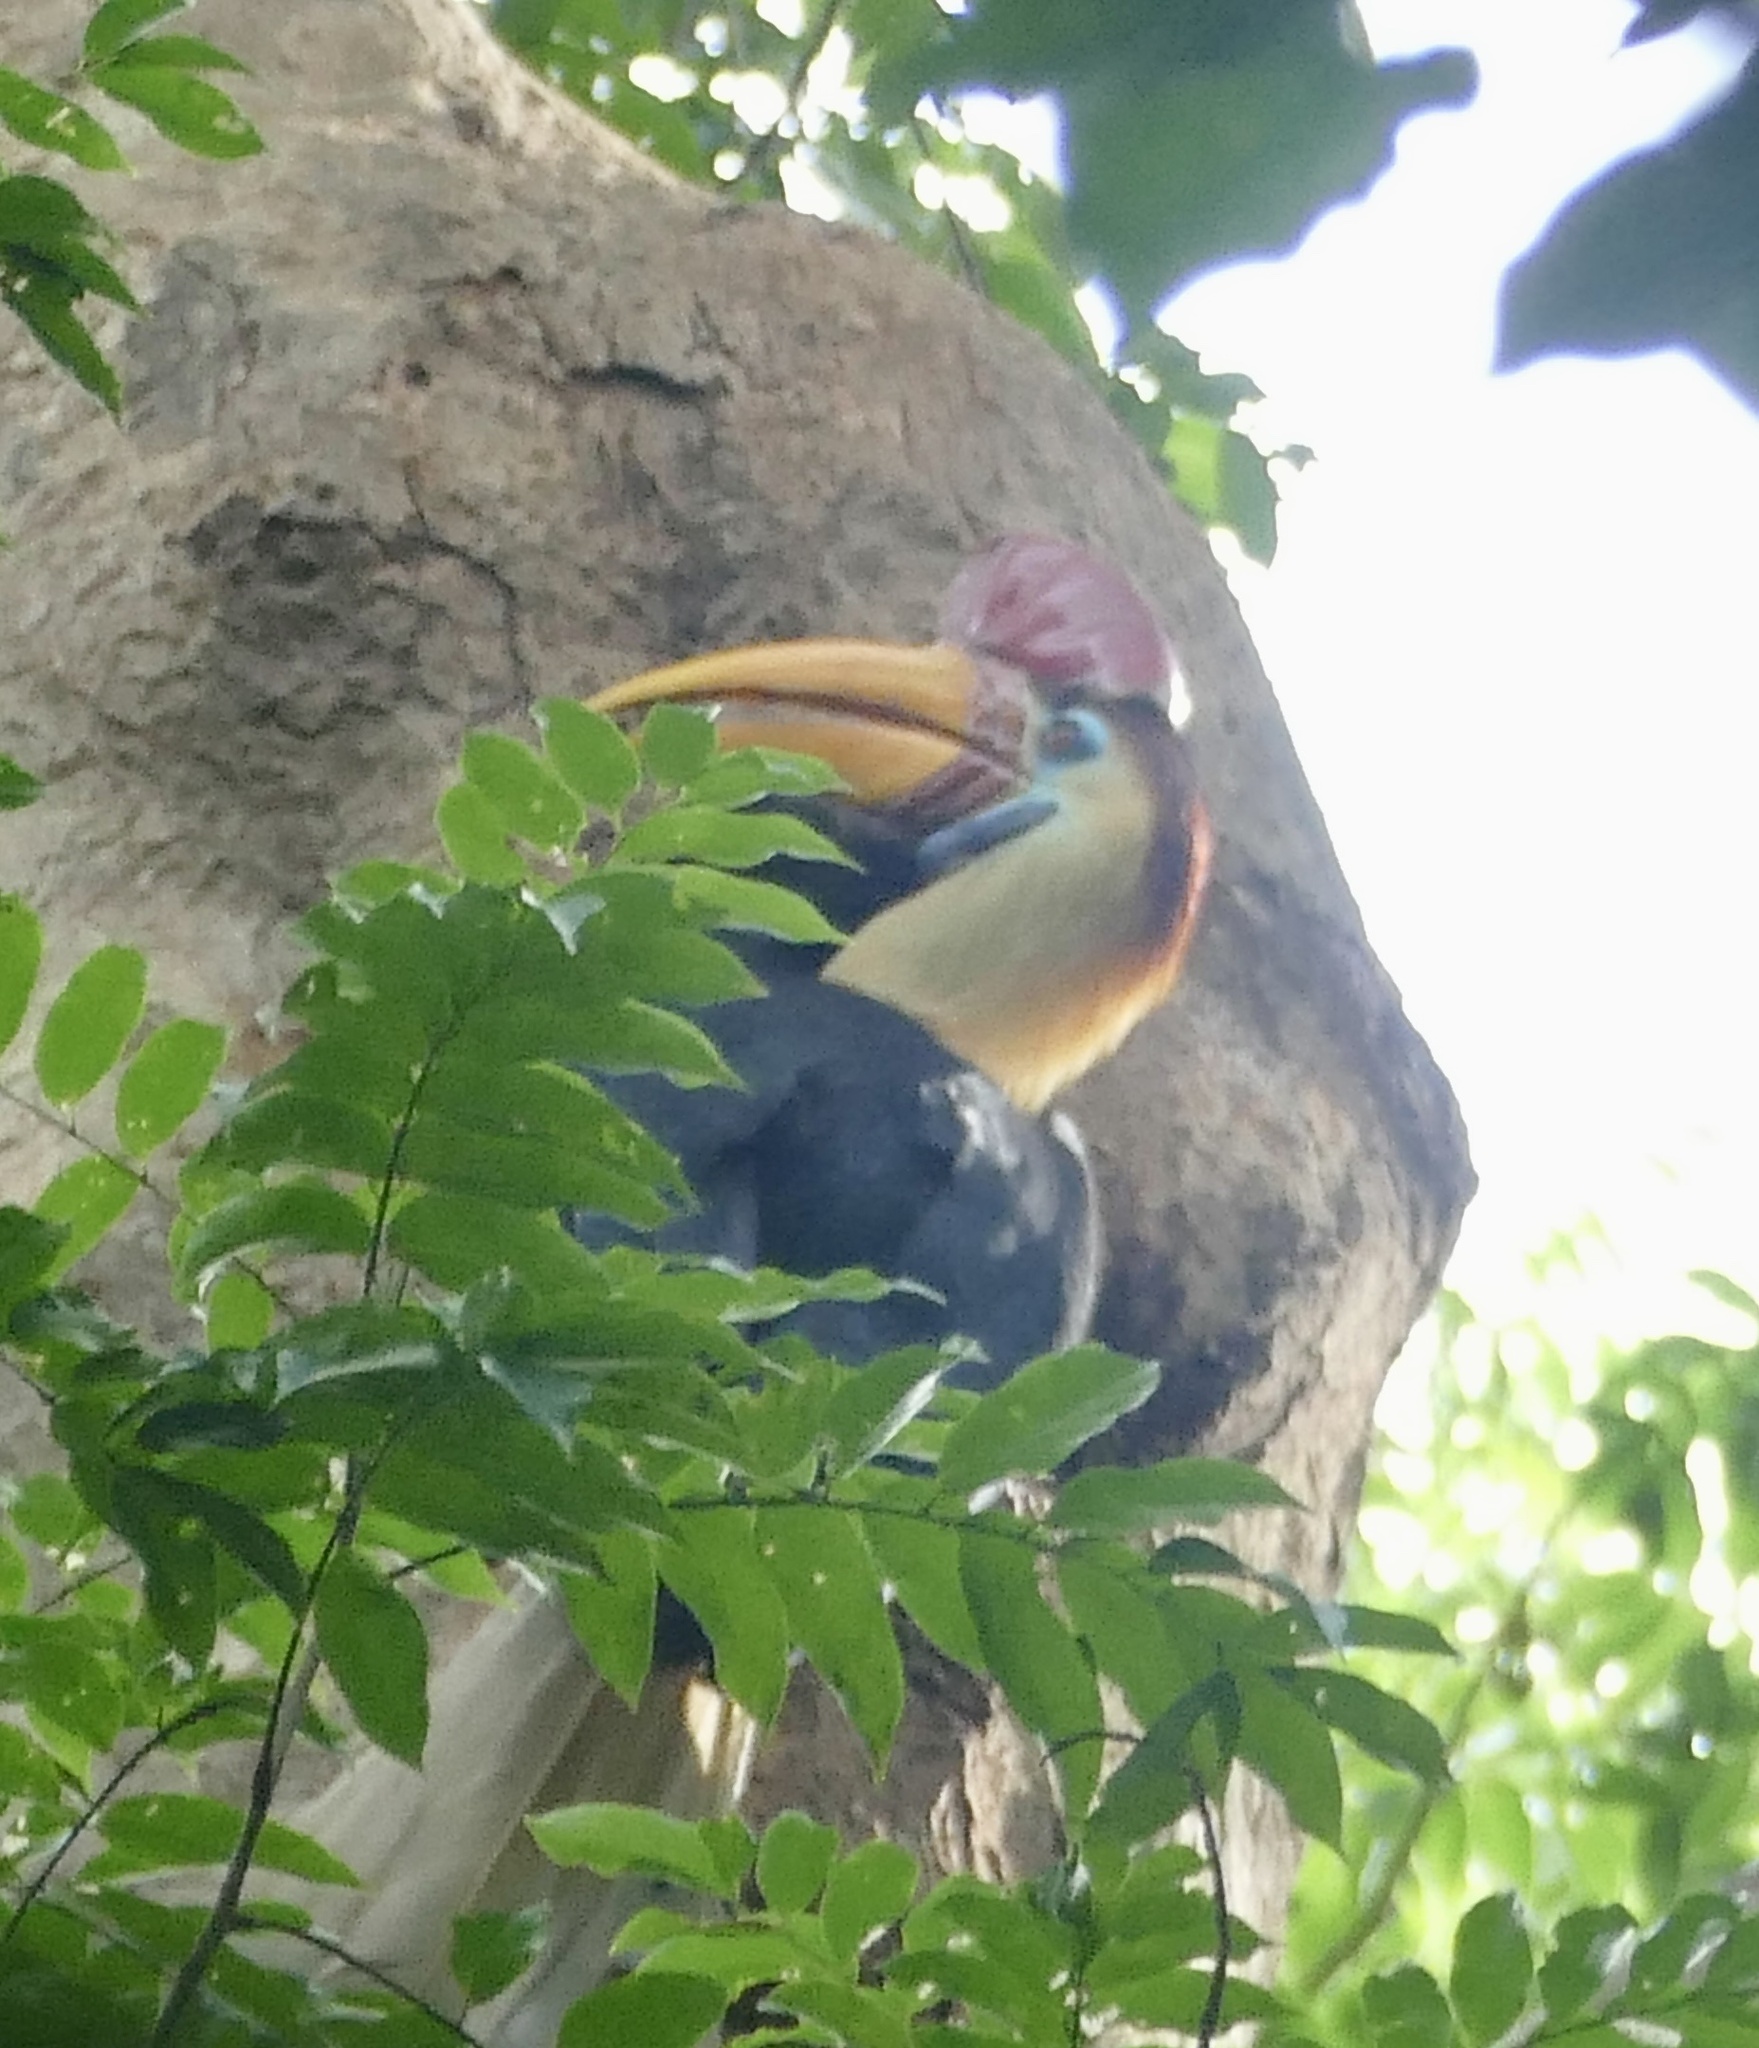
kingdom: Animalia
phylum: Chordata
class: Aves
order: Bucerotiformes
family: Bucerotidae
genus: Rhyticeros
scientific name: Rhyticeros cassidix
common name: Knobbed hornbill
